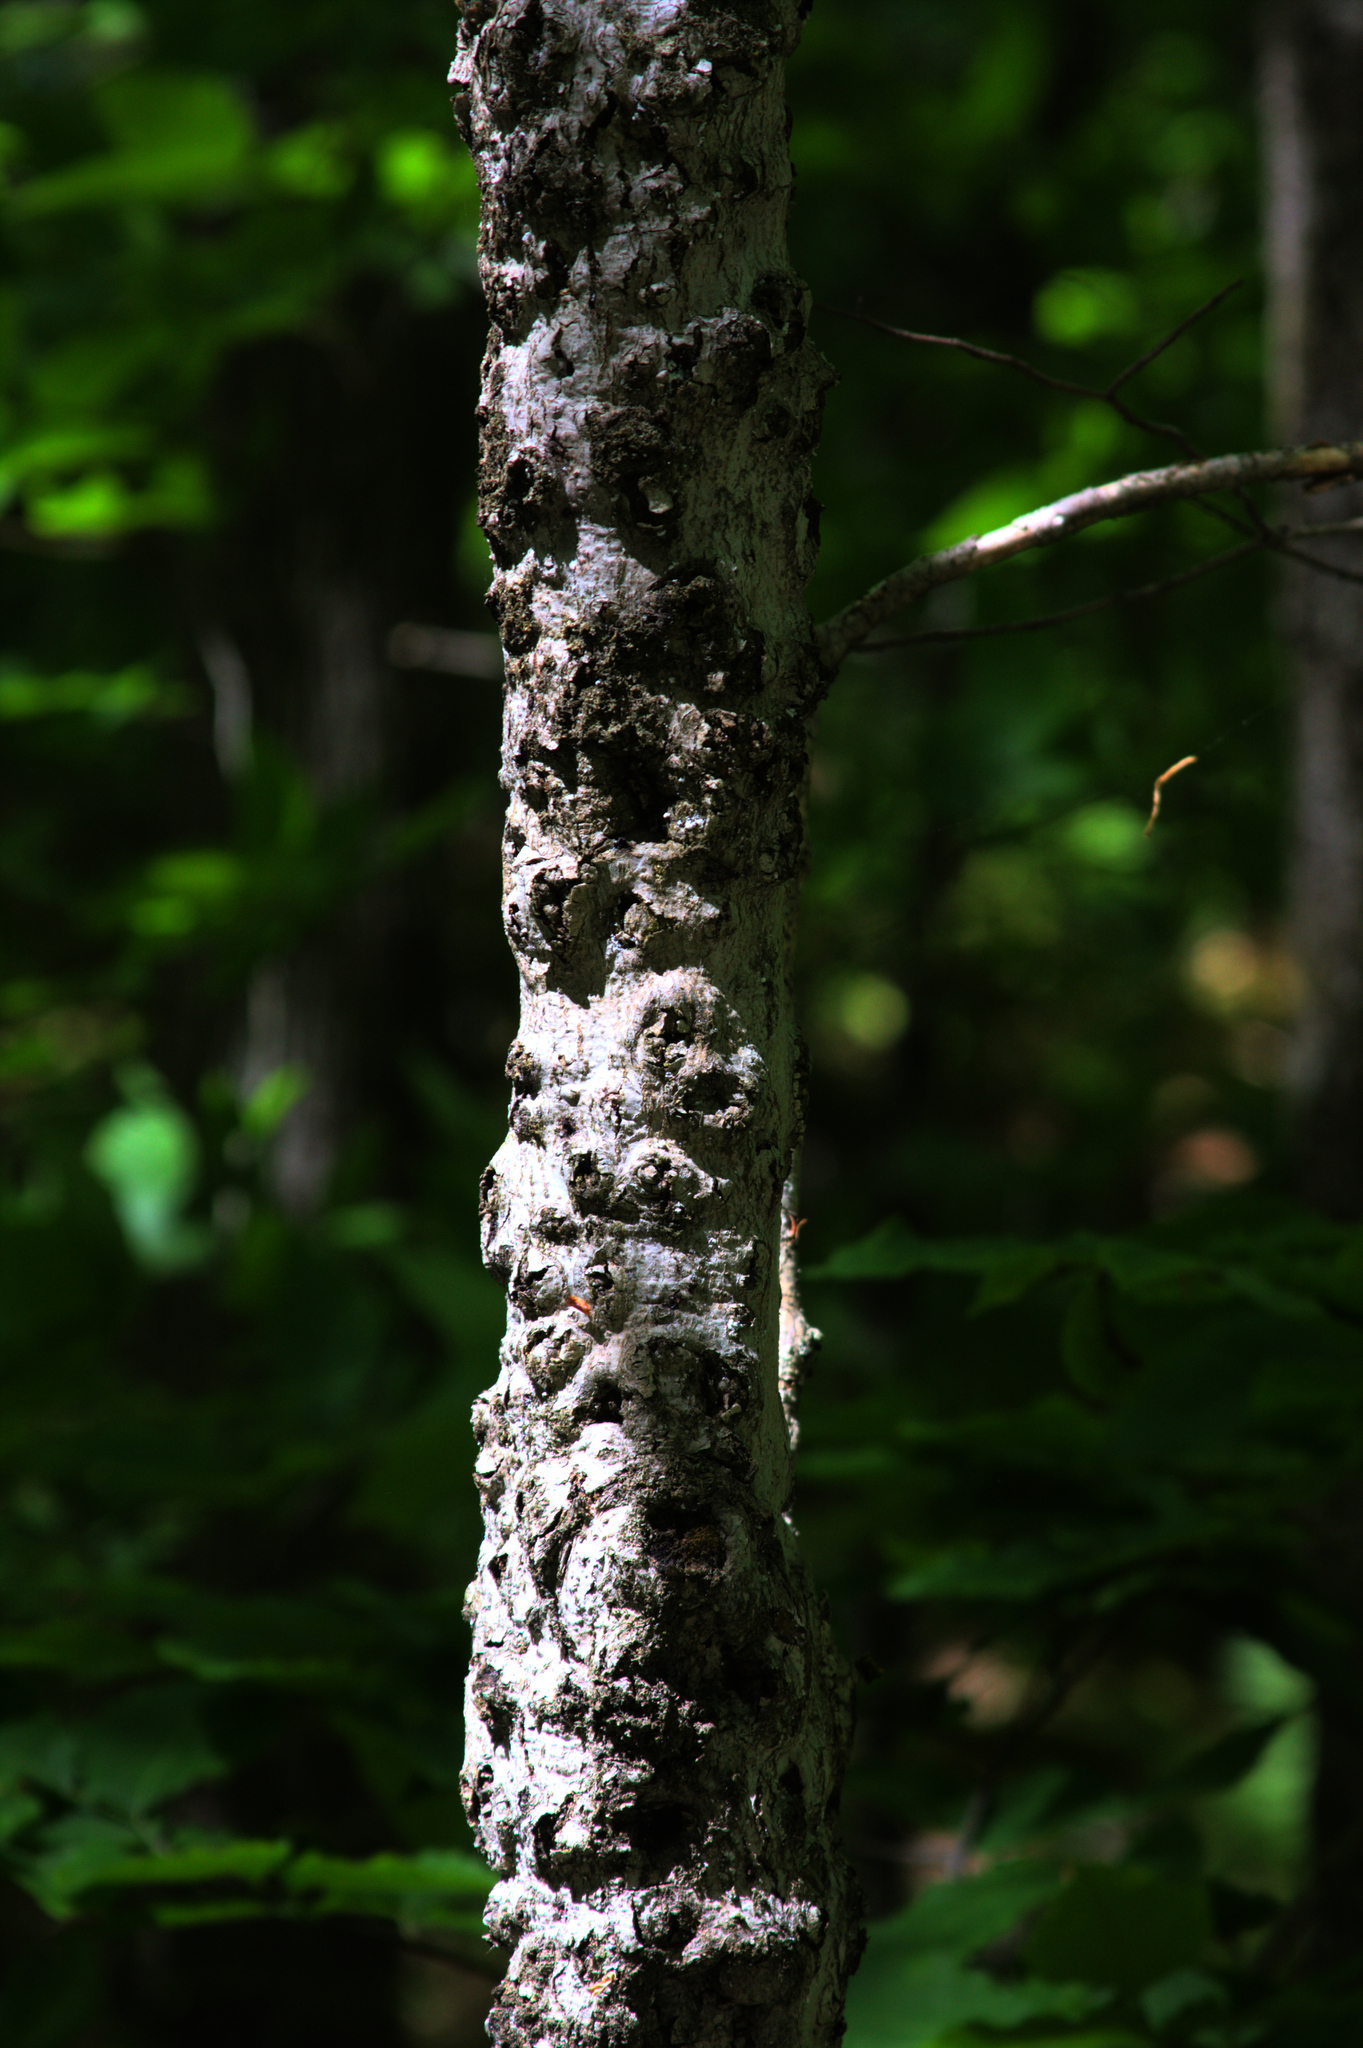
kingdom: Plantae
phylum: Tracheophyta
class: Magnoliopsida
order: Fagales
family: Fagaceae
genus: Fagus
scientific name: Fagus grandifolia
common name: American beech
